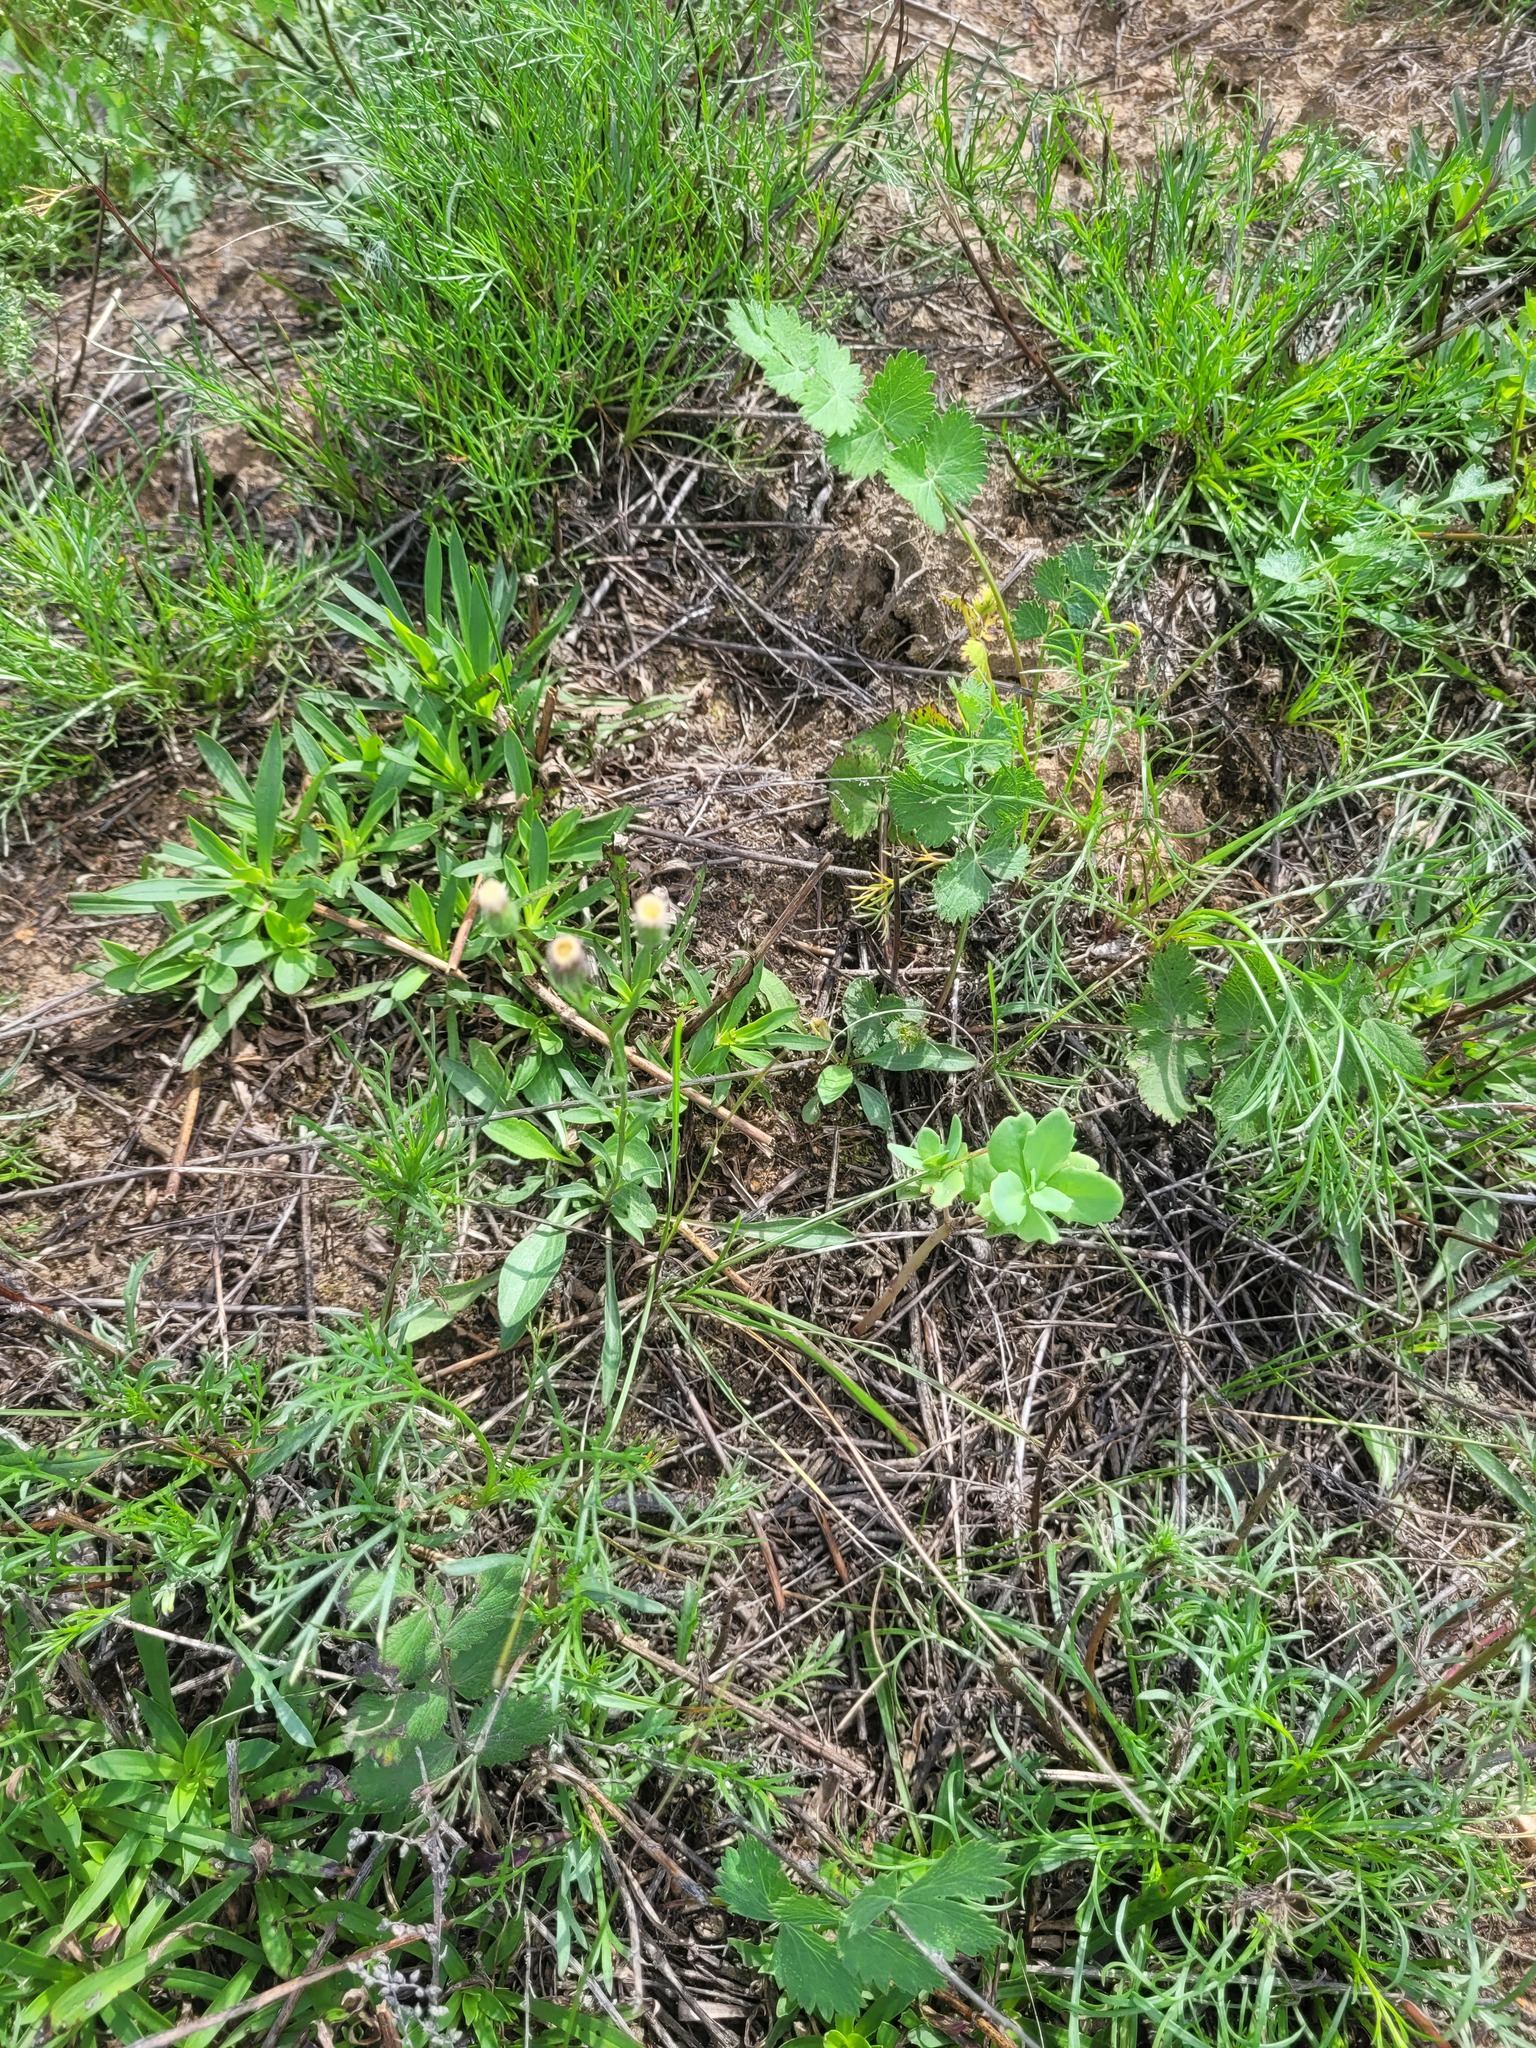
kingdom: Plantae
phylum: Tracheophyta
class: Magnoliopsida
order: Asterales
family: Asteraceae
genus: Erigeron
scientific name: Erigeron acris
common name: Blue fleabane
